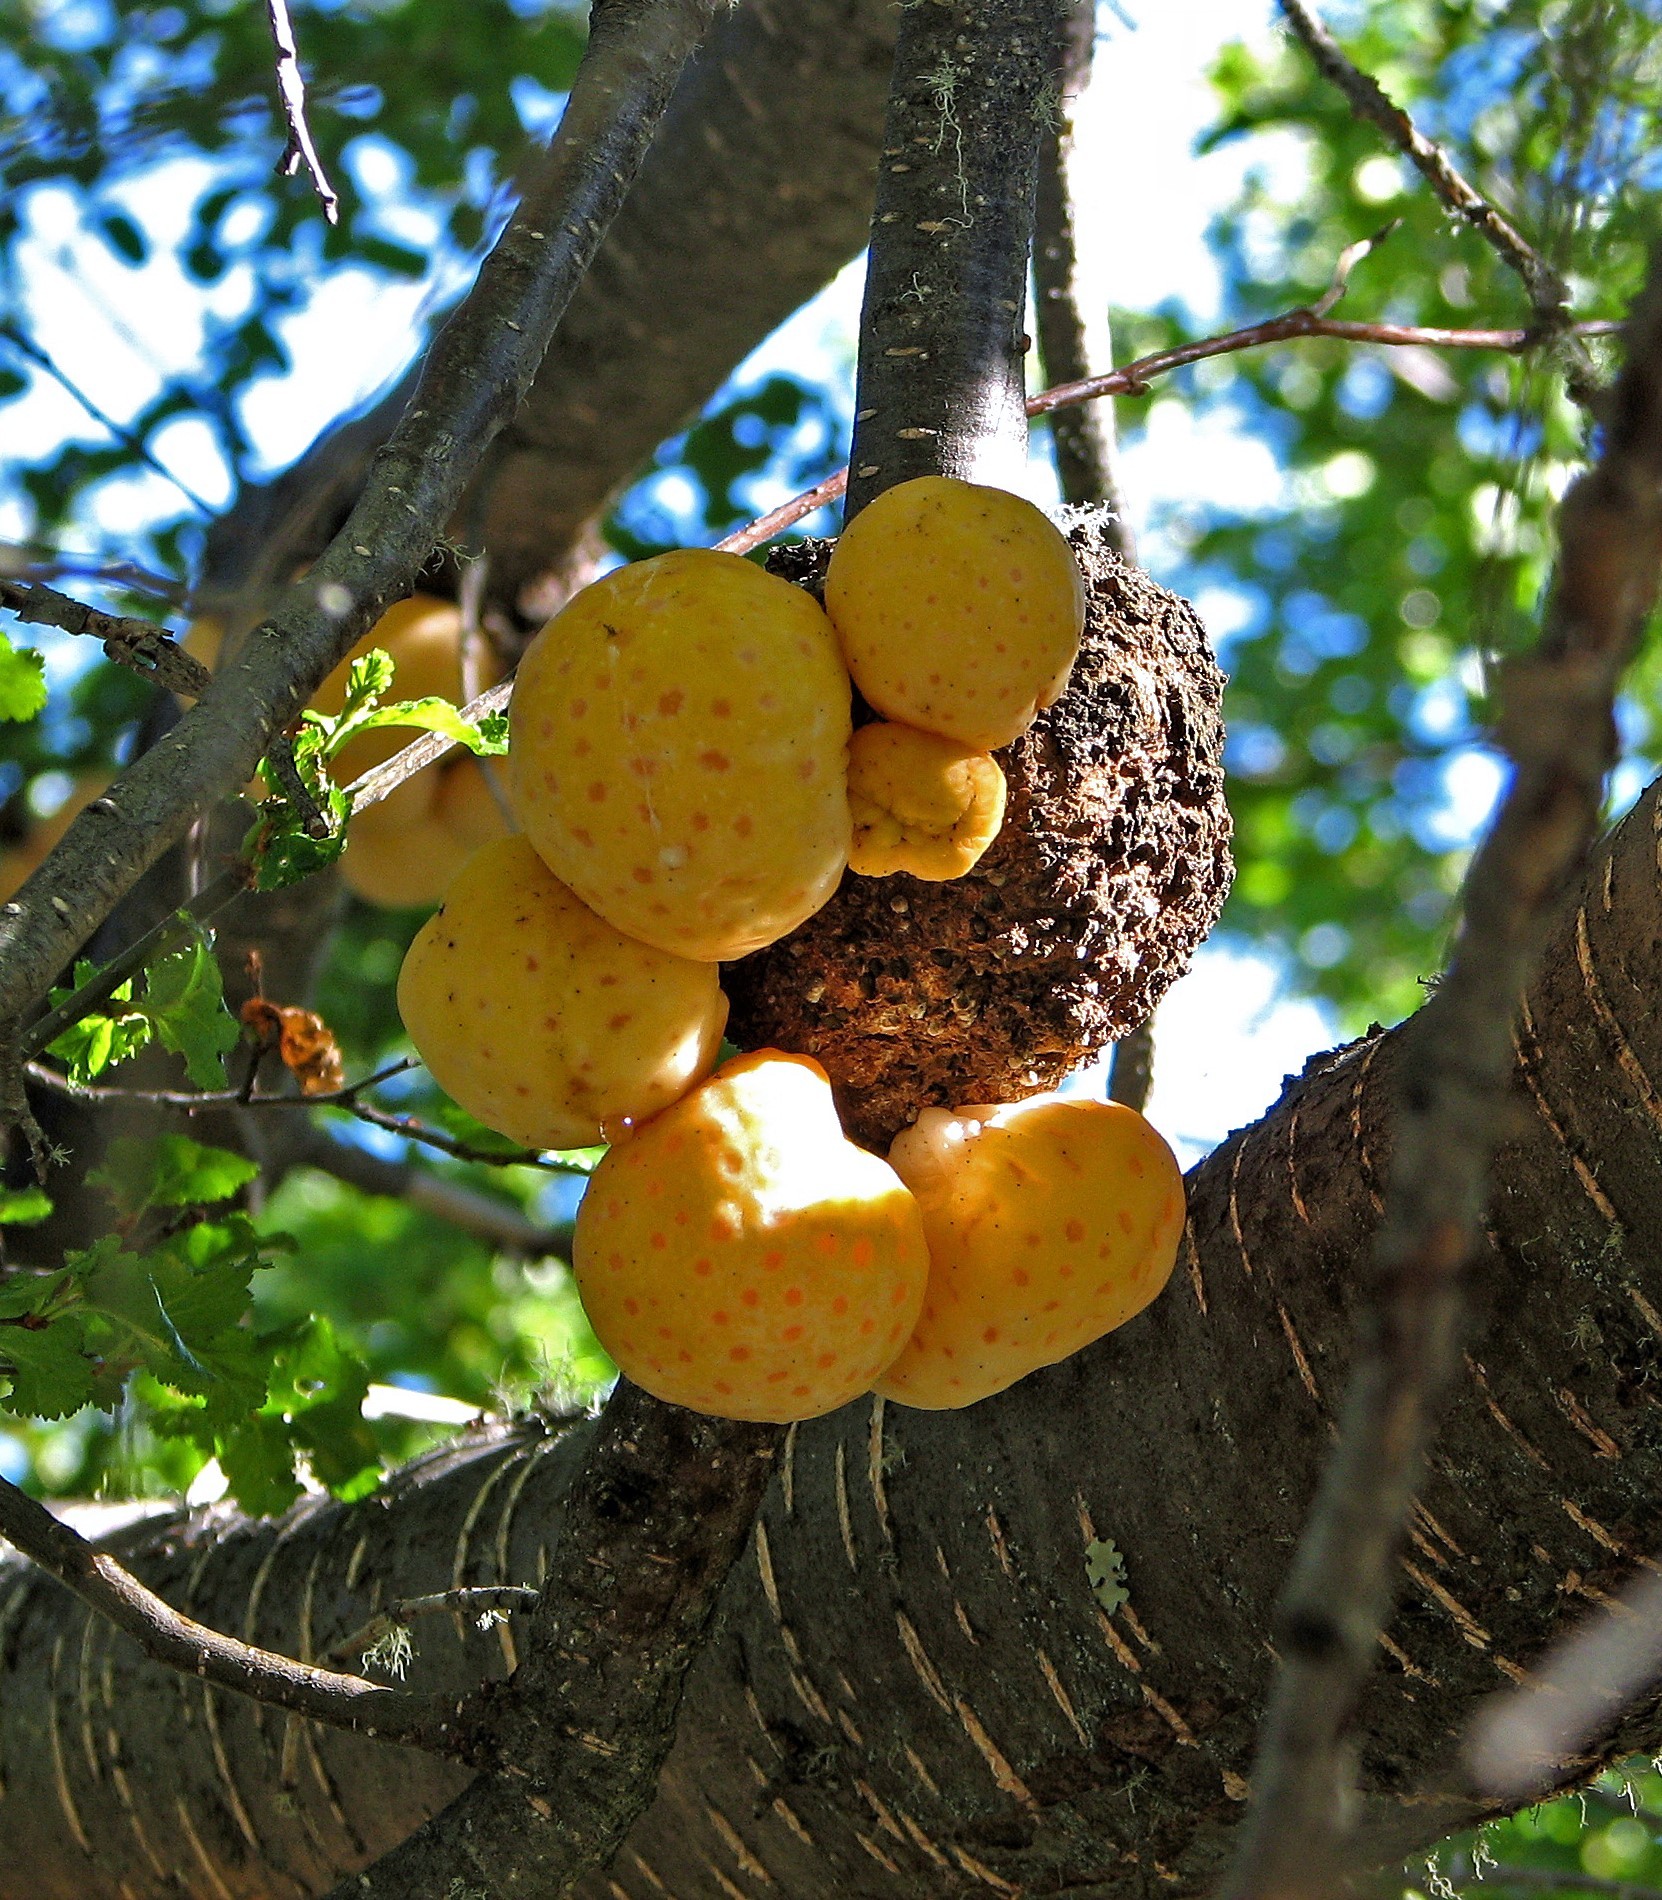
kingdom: Fungi
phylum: Ascomycota
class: Leotiomycetes
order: Cyttariales
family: Cyttariaceae
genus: Cyttaria
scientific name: Cyttaria hariotii
